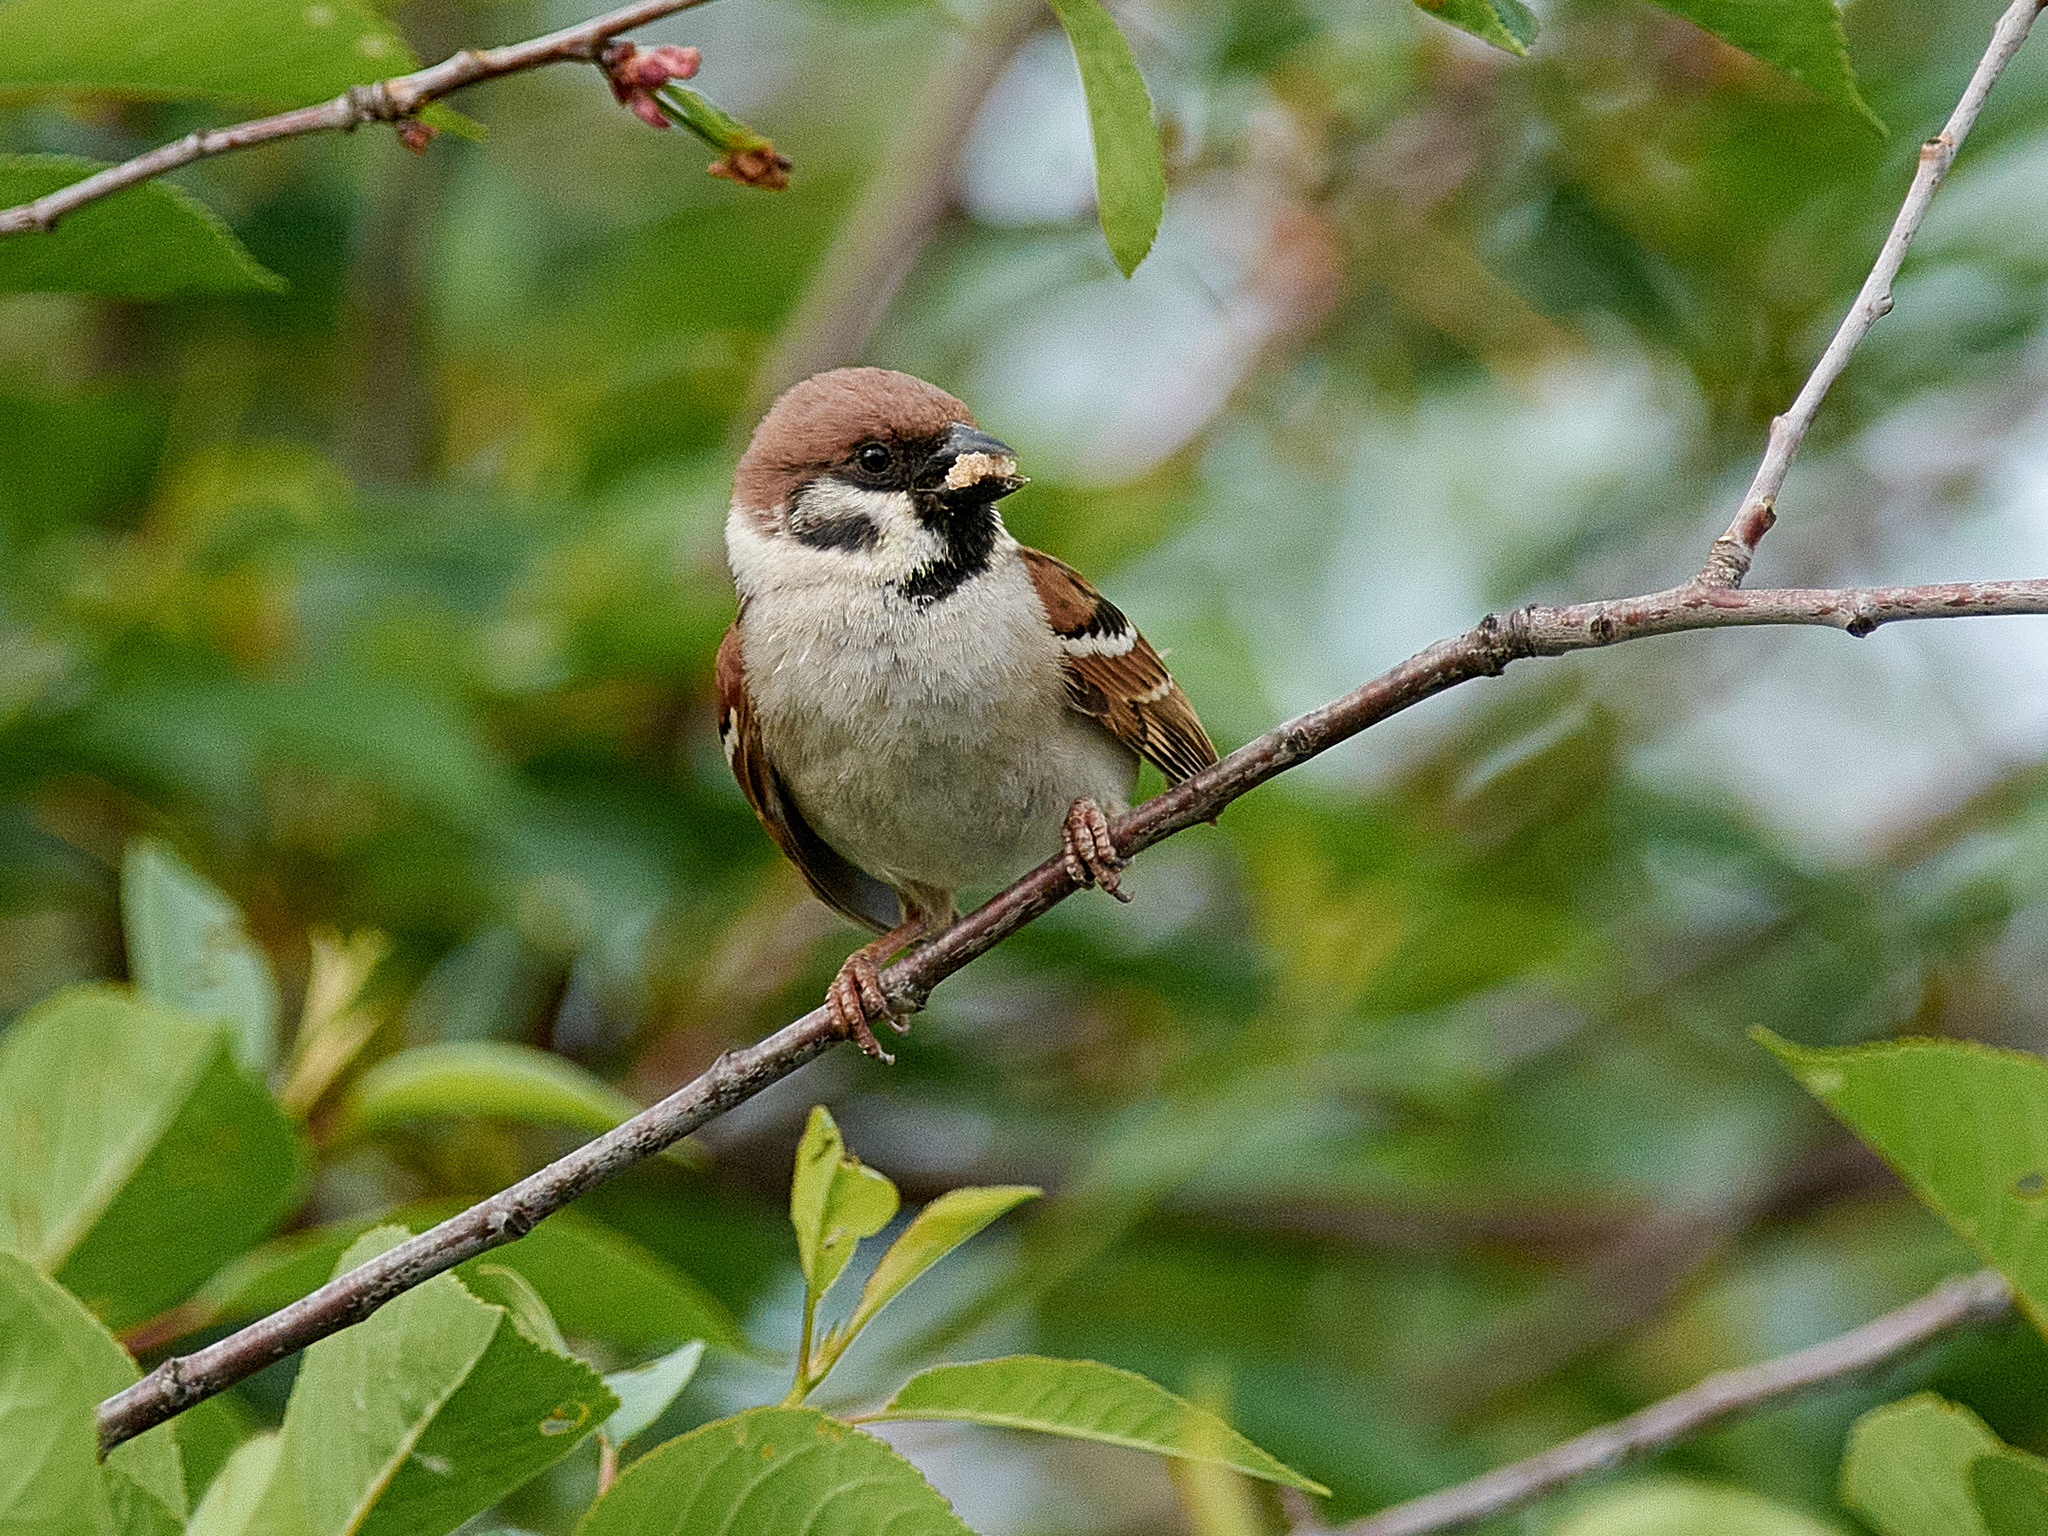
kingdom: Animalia
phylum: Chordata
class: Aves
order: Passeriformes
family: Passeridae
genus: Passer
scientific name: Passer montanus
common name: Eurasian tree sparrow
